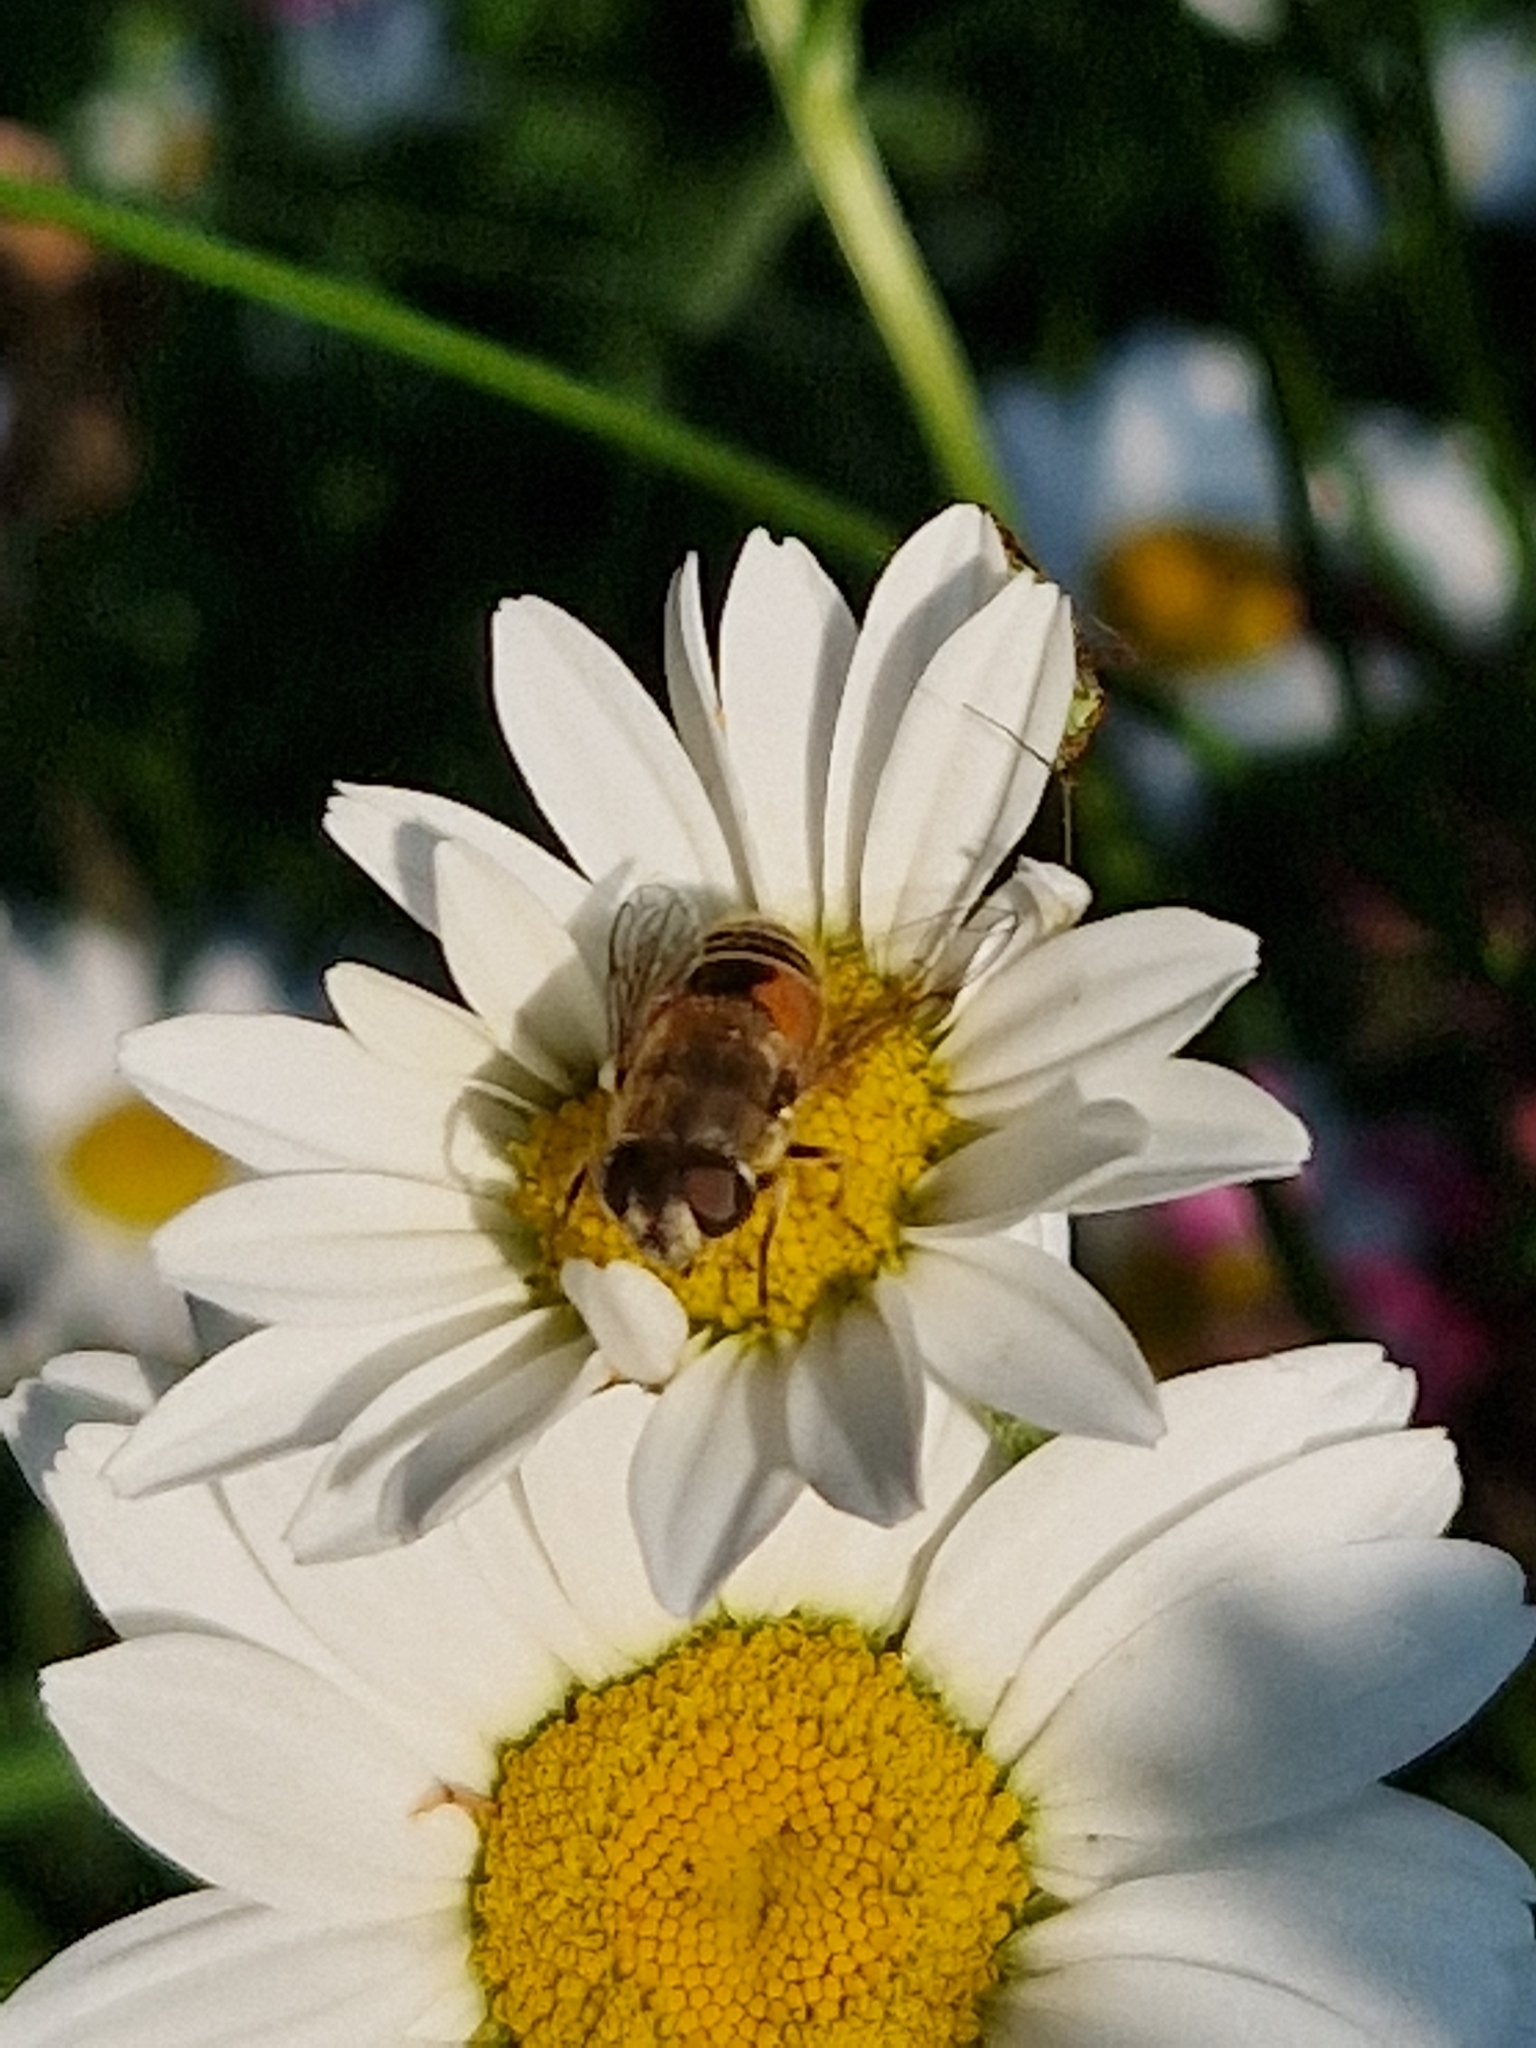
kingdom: Animalia
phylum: Arthropoda
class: Insecta
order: Diptera
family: Syrphidae
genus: Eristalis
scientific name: Eristalis arbustorum
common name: Hover fly
